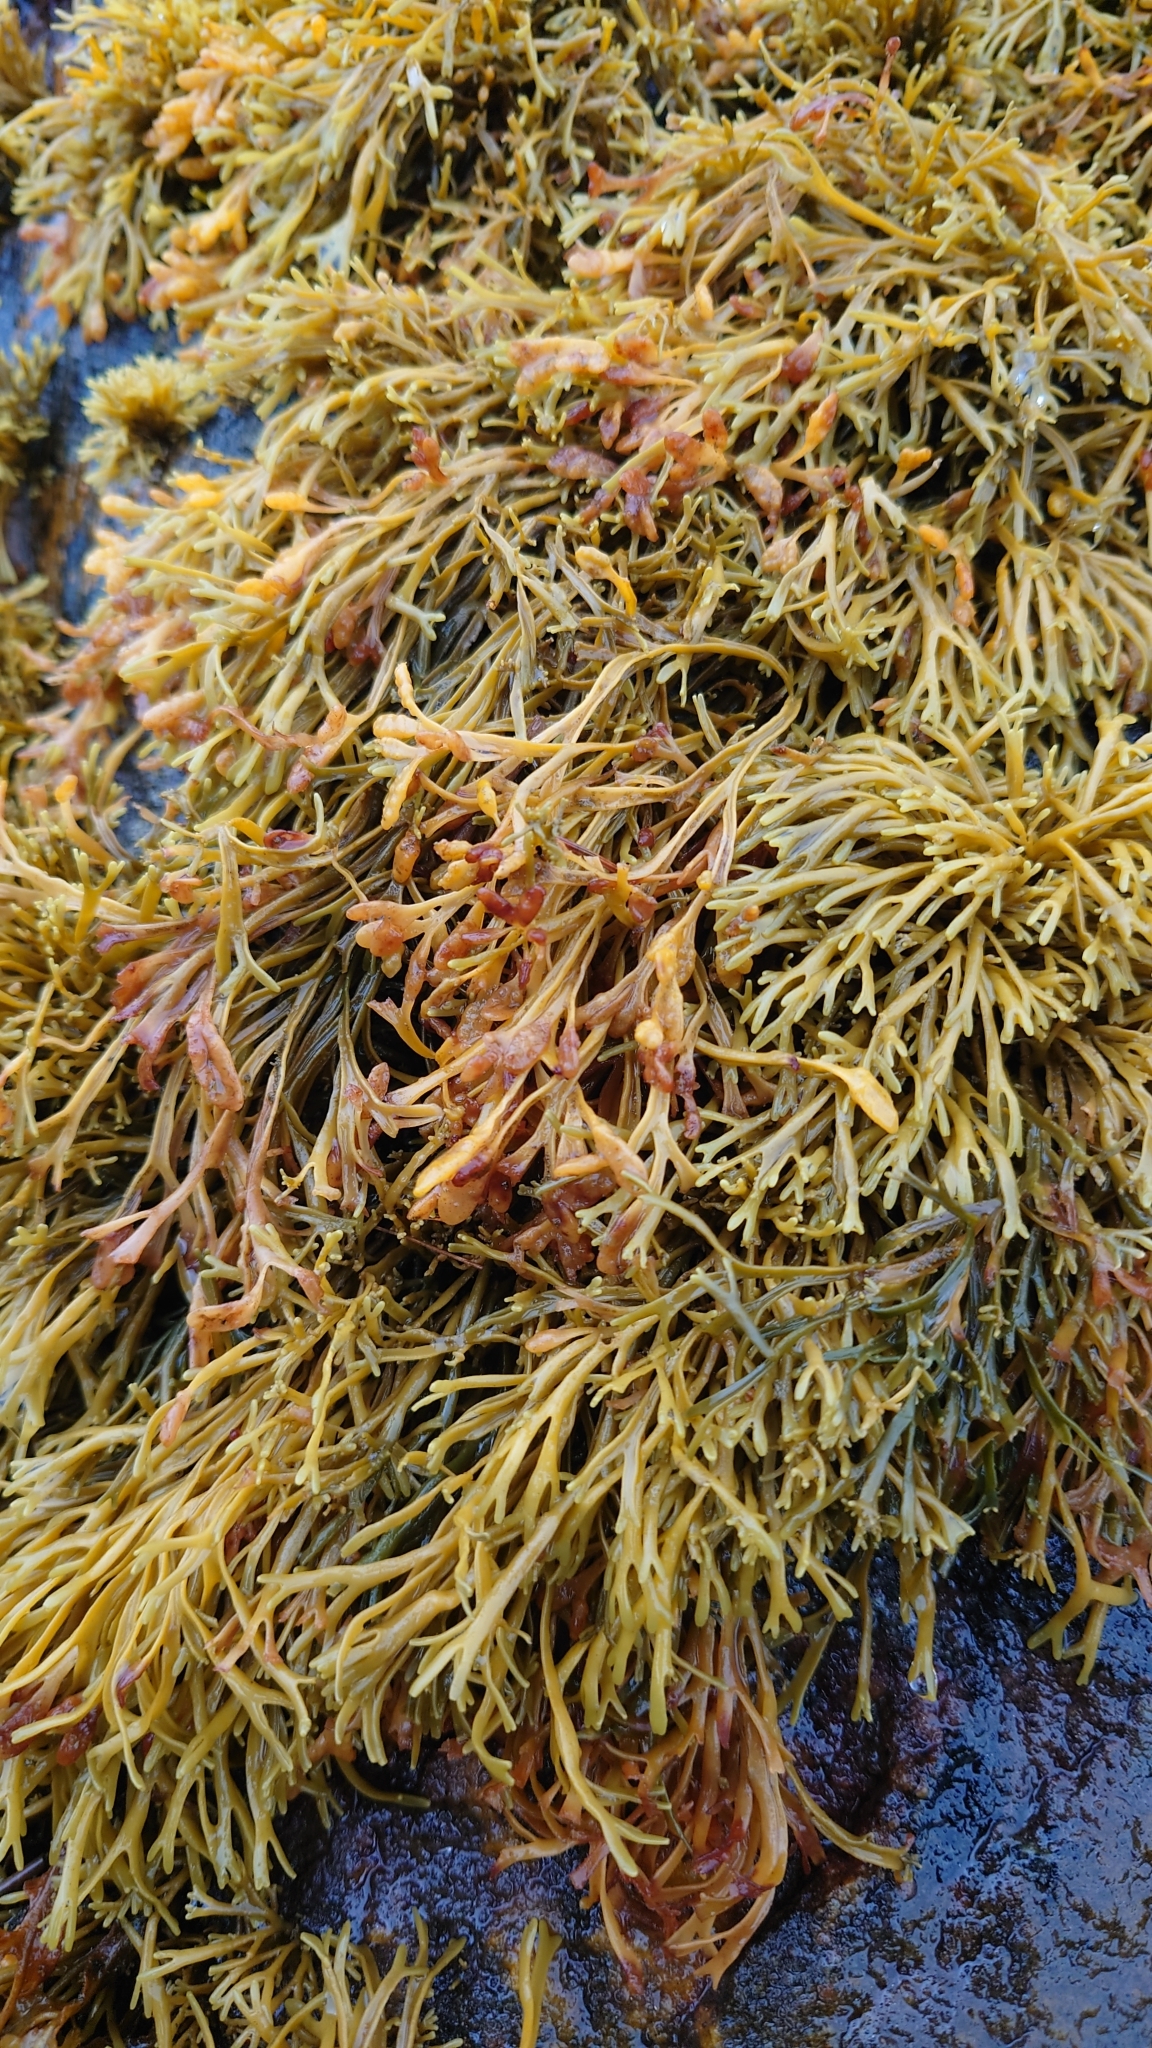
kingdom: Chromista
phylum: Ochrophyta
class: Phaeophyceae
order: Fucales
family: Fucaceae
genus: Pelvetia
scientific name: Pelvetia canaliculata
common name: Channelled wrack
